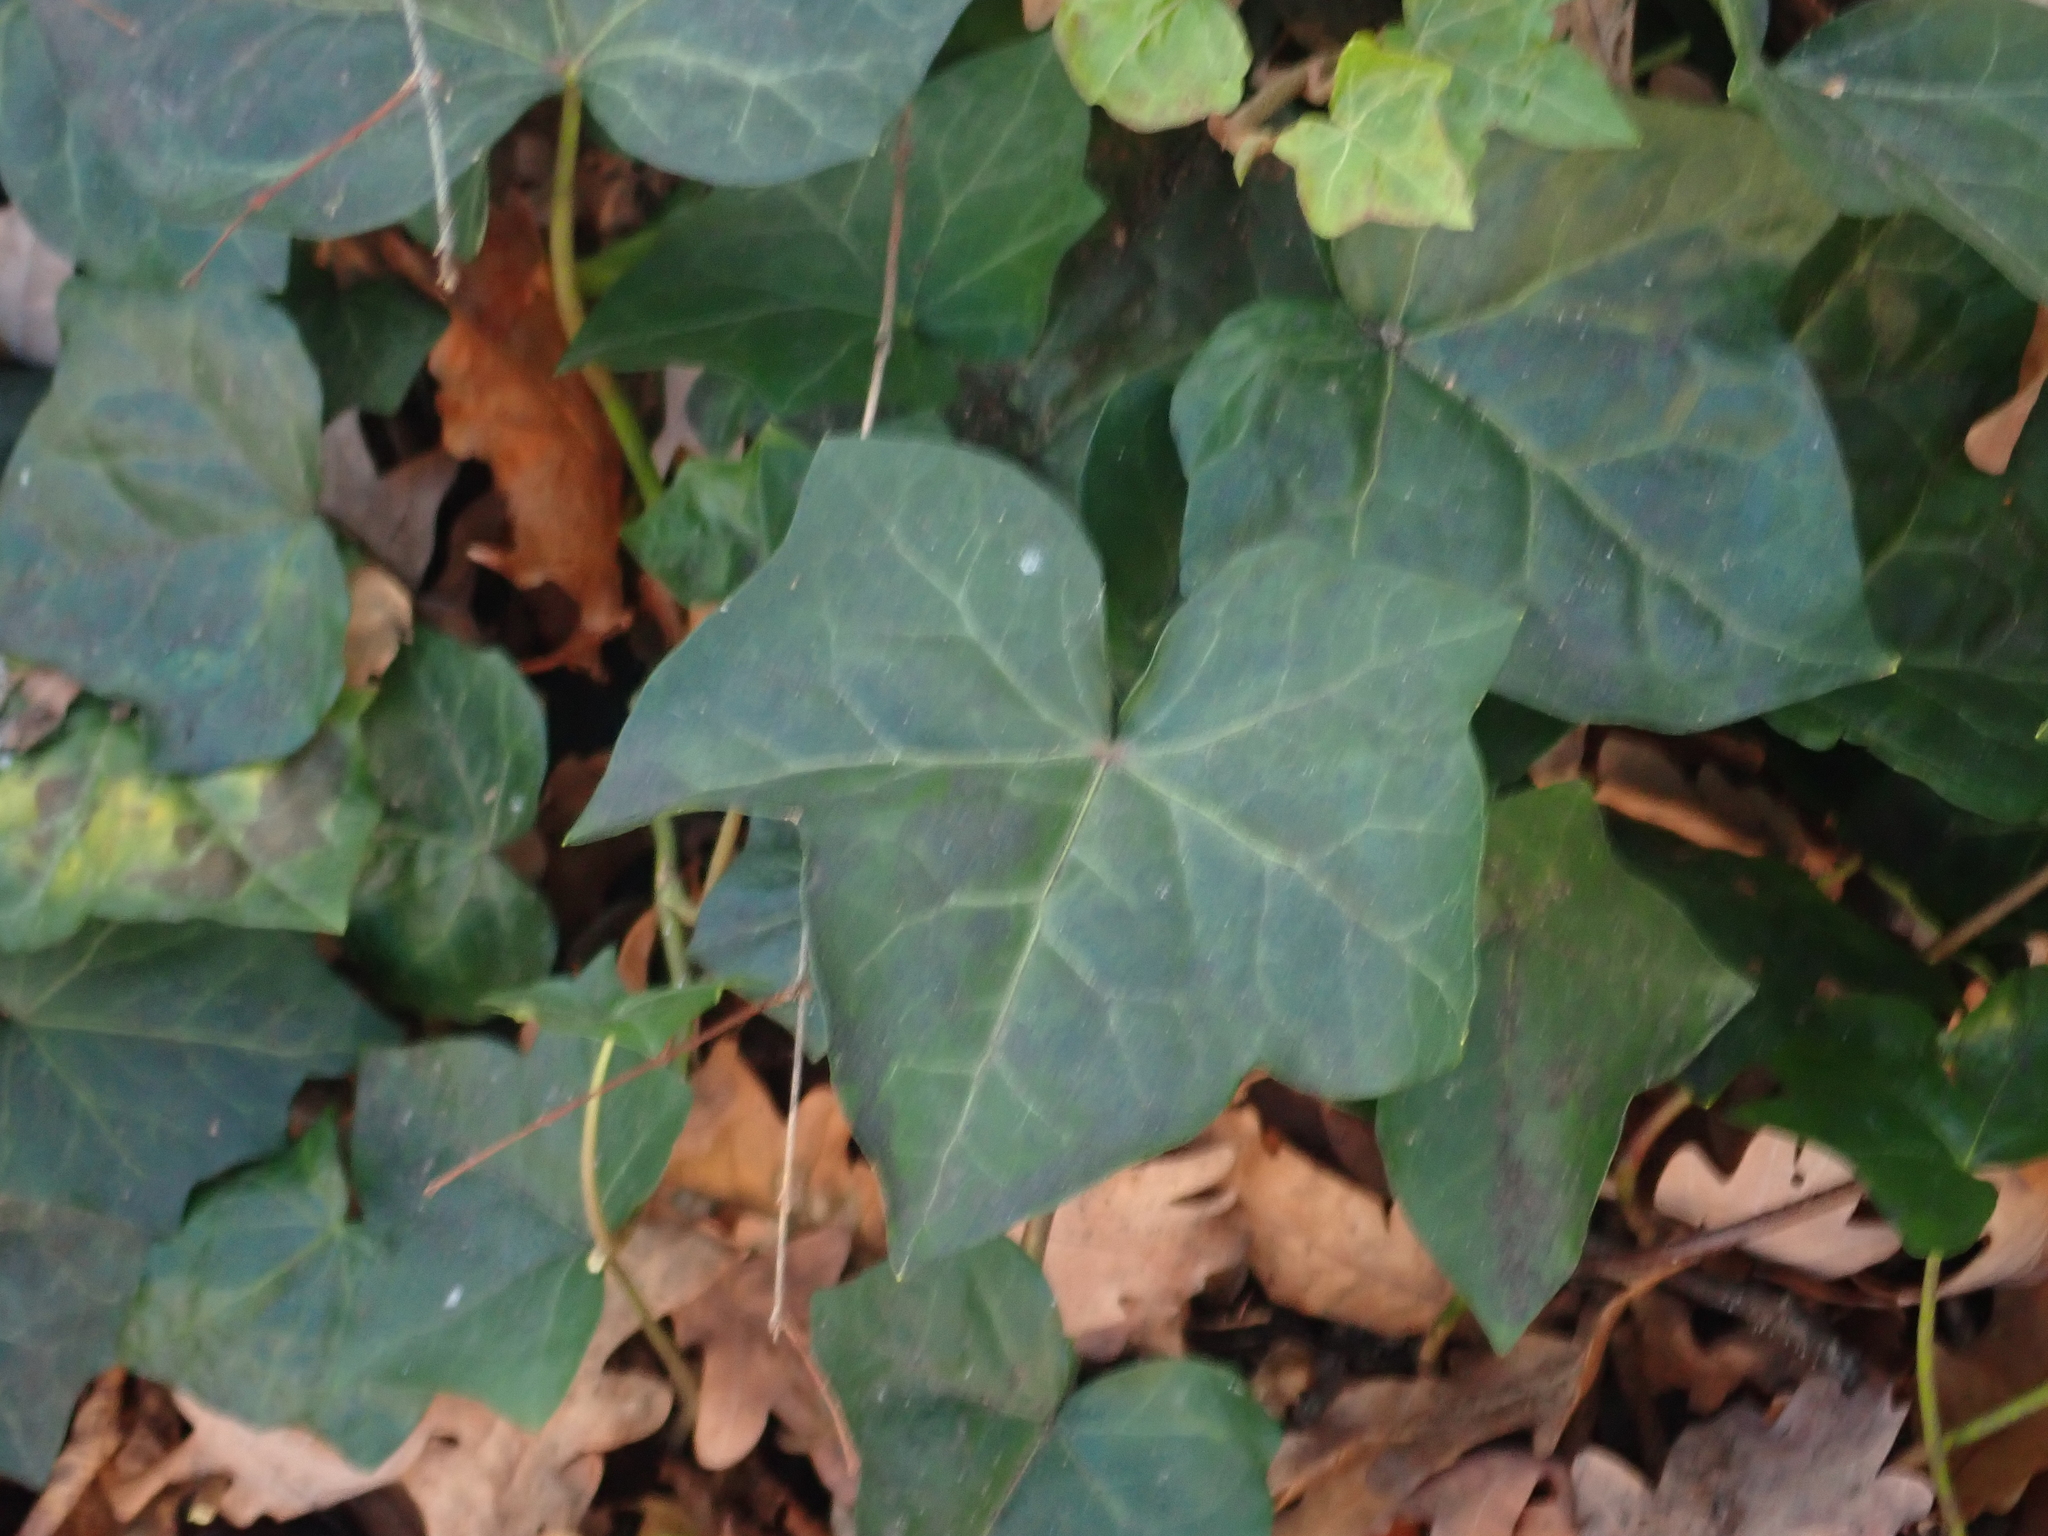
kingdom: Plantae
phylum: Tracheophyta
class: Magnoliopsida
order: Apiales
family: Araliaceae
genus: Hedera
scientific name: Hedera helix
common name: Ivy
